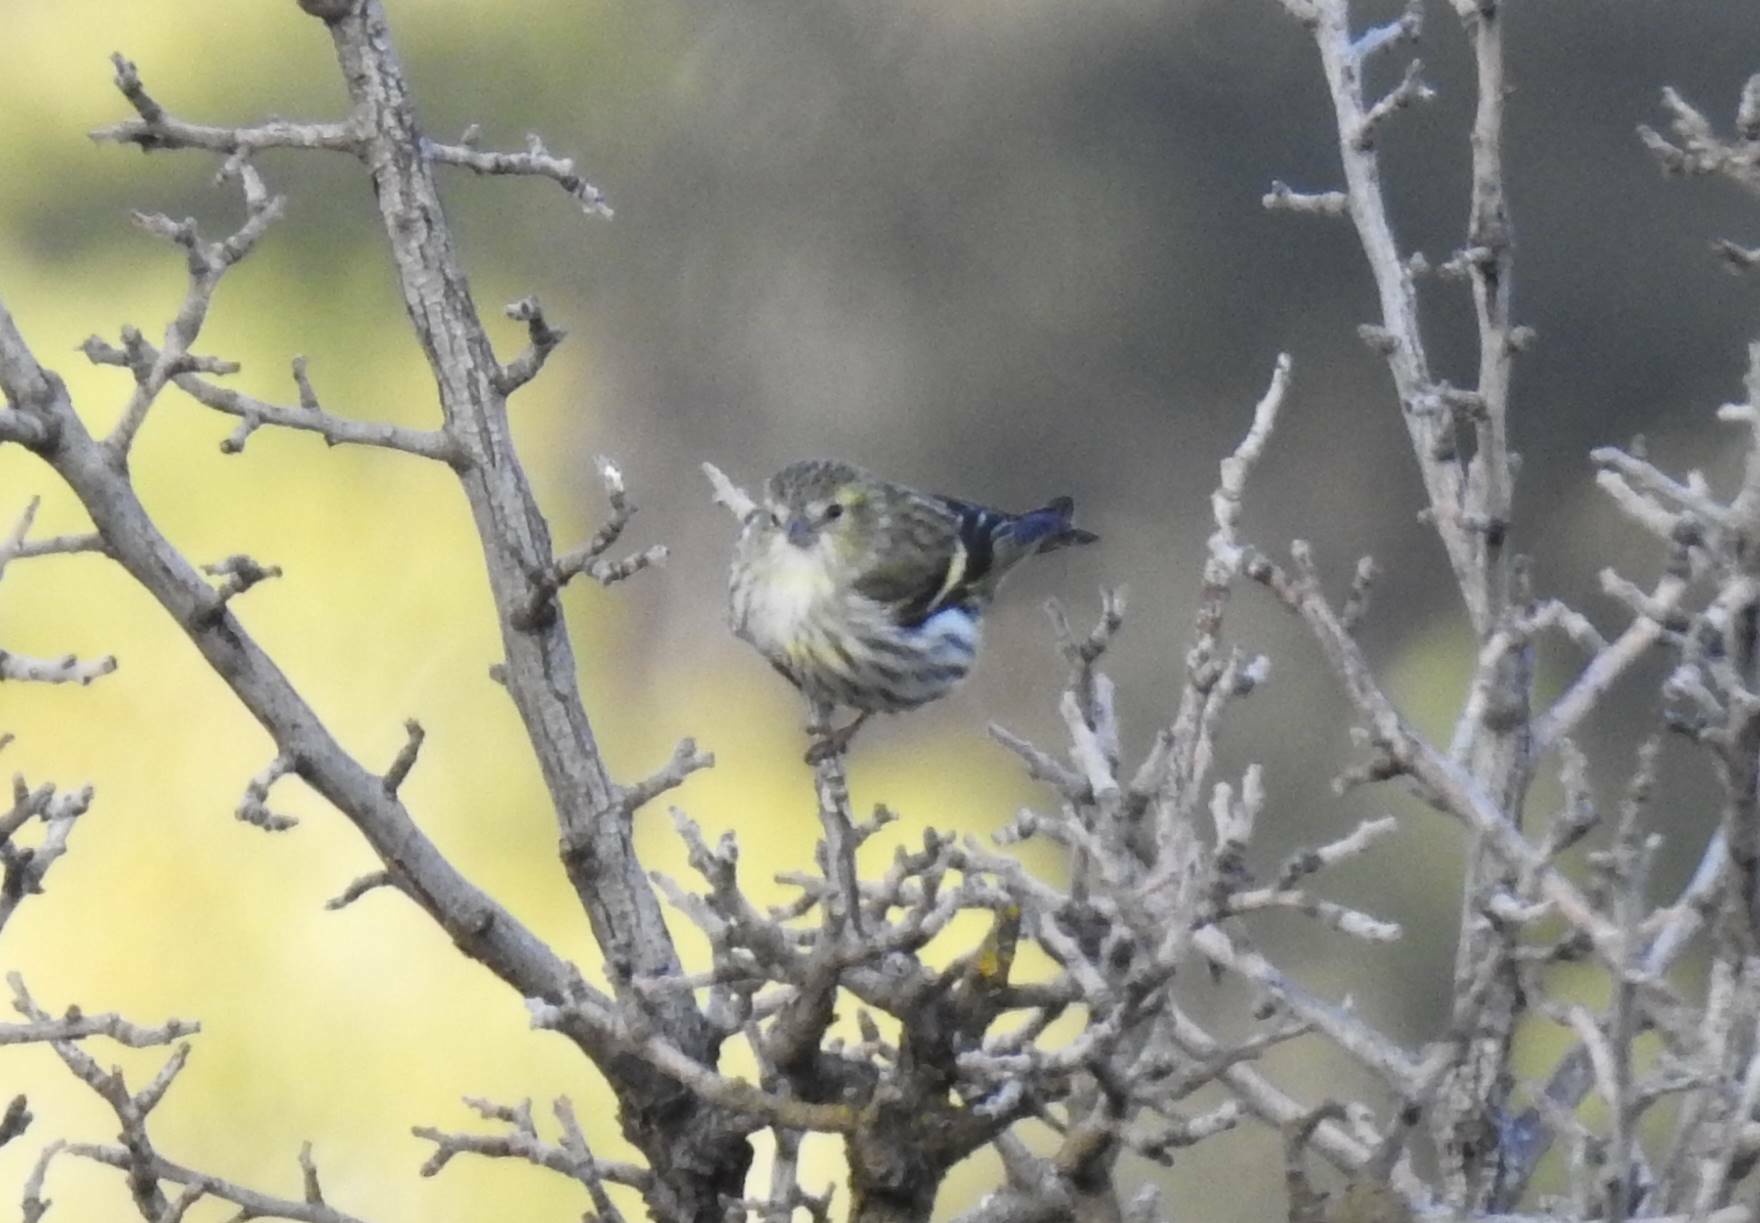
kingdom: Animalia
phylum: Chordata
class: Aves
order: Passeriformes
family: Fringillidae
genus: Spinus
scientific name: Spinus spinus
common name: Eurasian siskin
